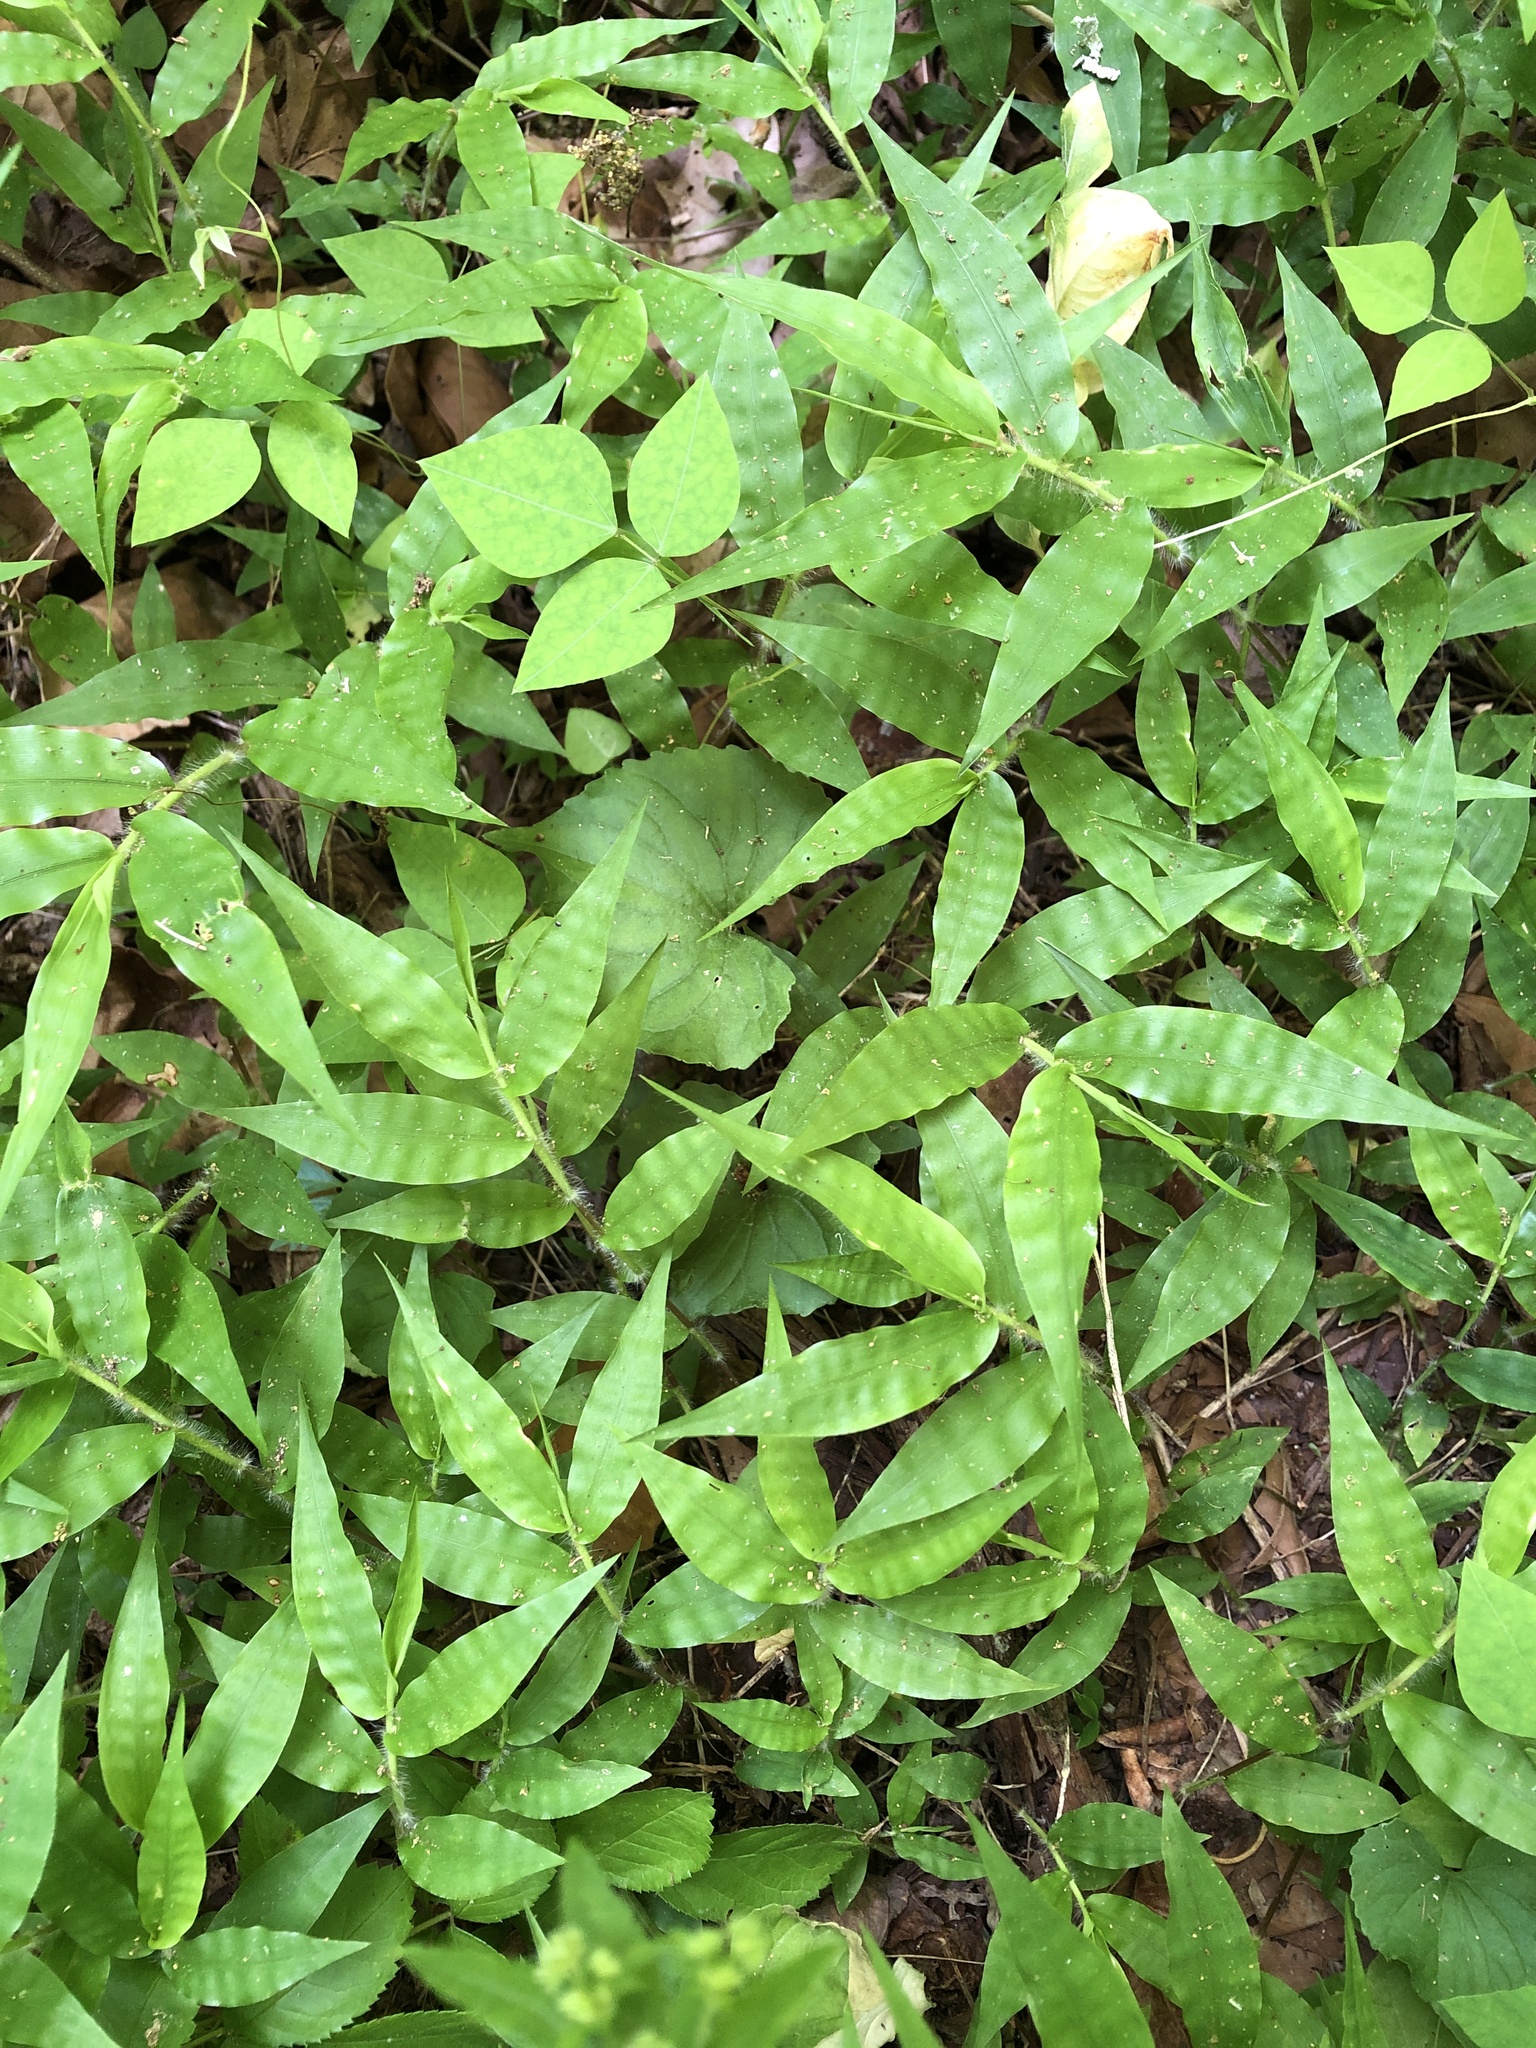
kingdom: Plantae
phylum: Tracheophyta
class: Liliopsida
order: Poales
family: Poaceae
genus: Oplismenus
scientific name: Oplismenus undulatifolius
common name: Wavyleaf basketgrass
